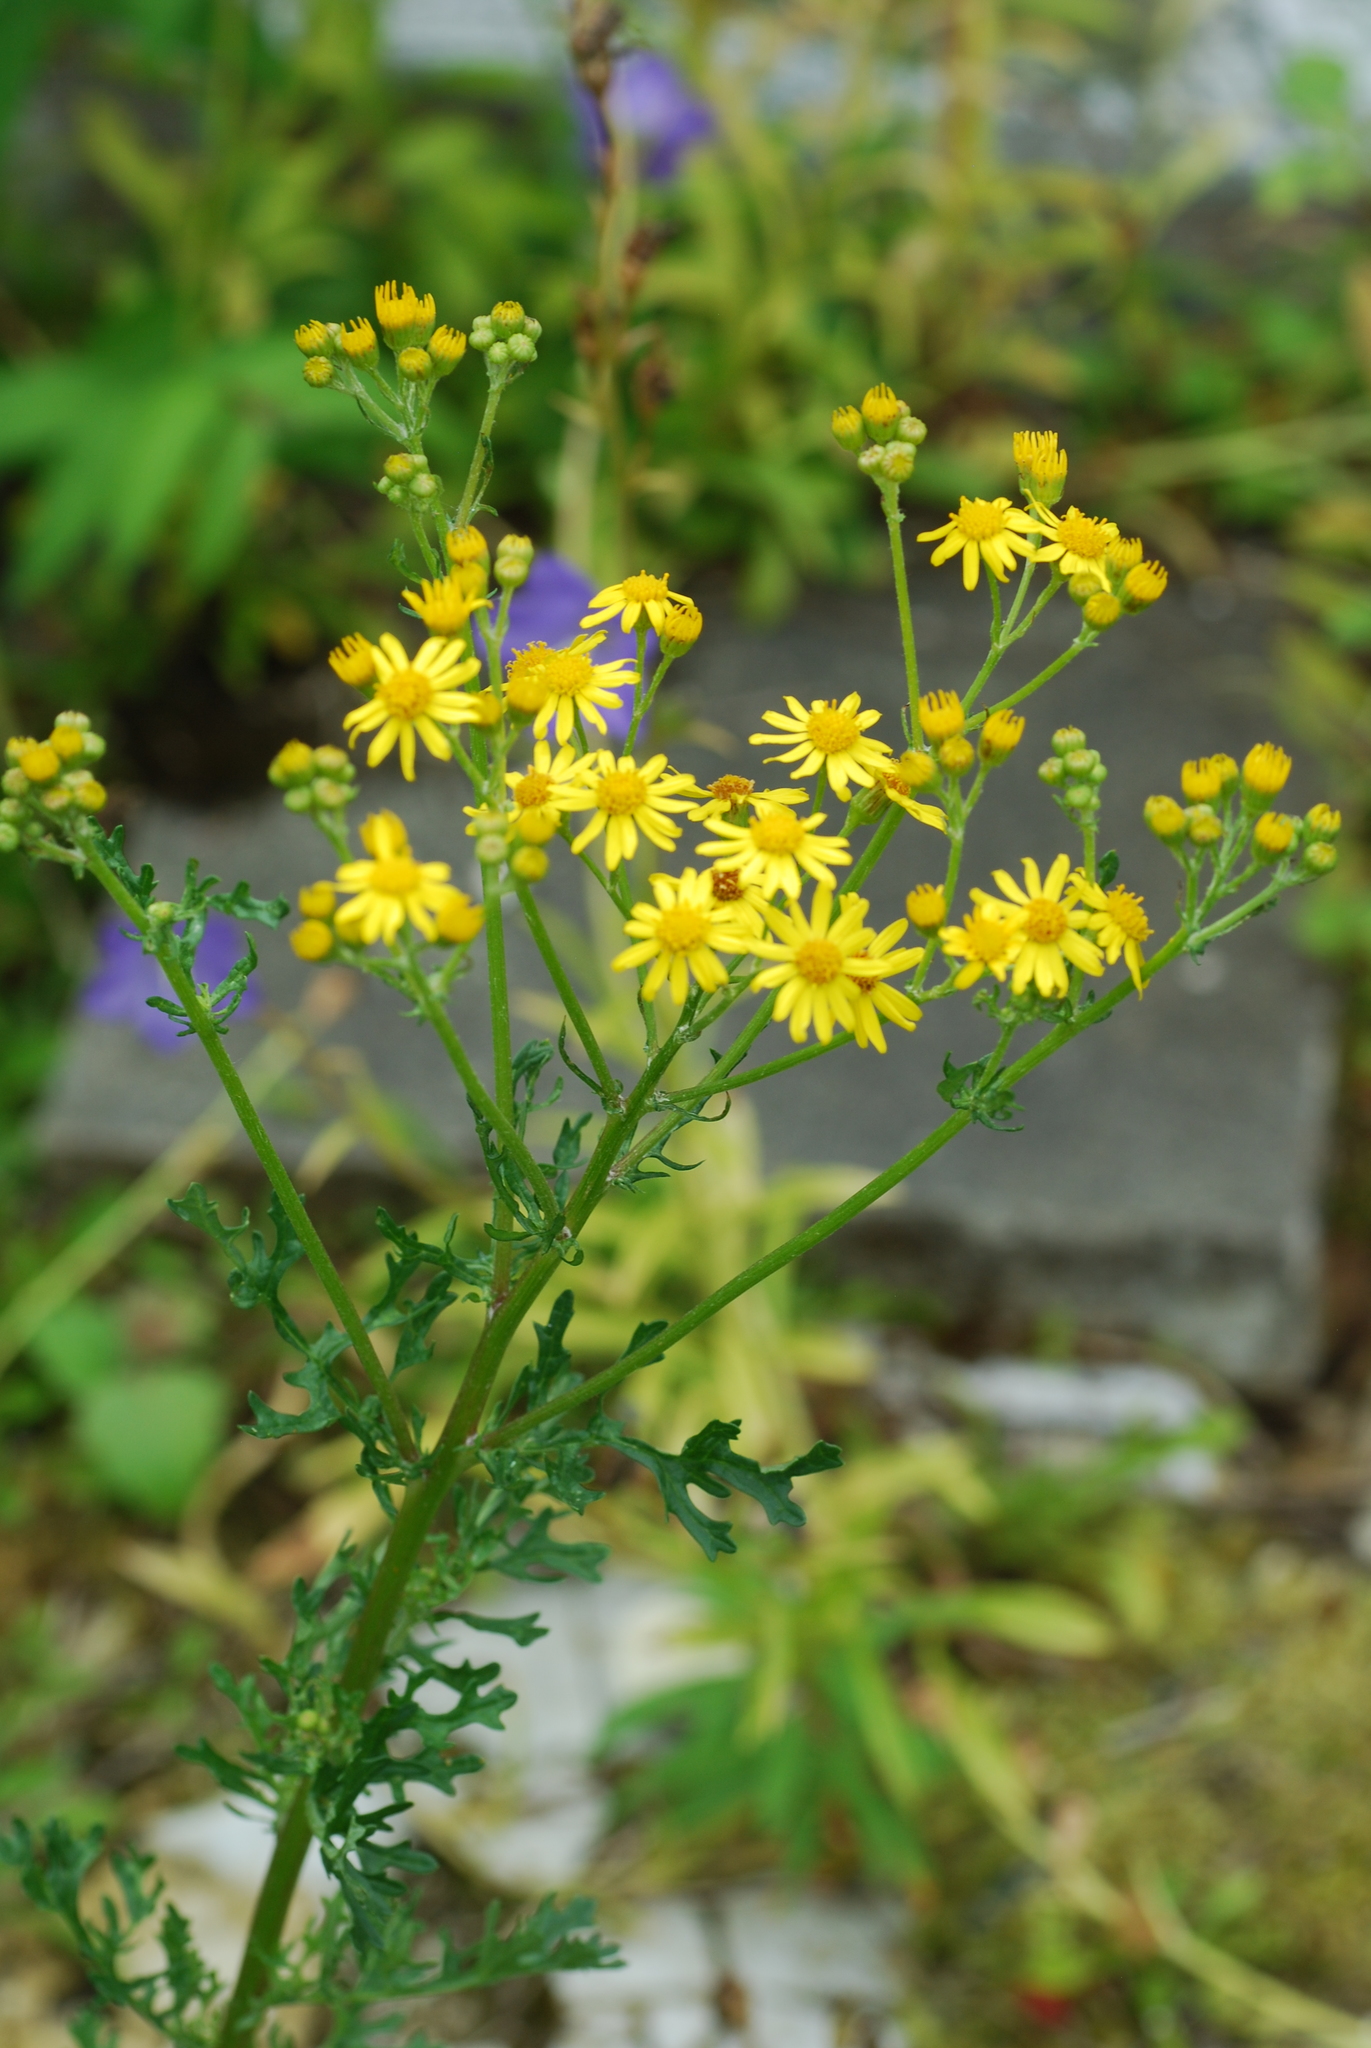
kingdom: Plantae
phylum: Tracheophyta
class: Magnoliopsida
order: Asterales
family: Asteraceae
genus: Jacobaea
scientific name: Jacobaea vulgaris
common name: Stinking willie
